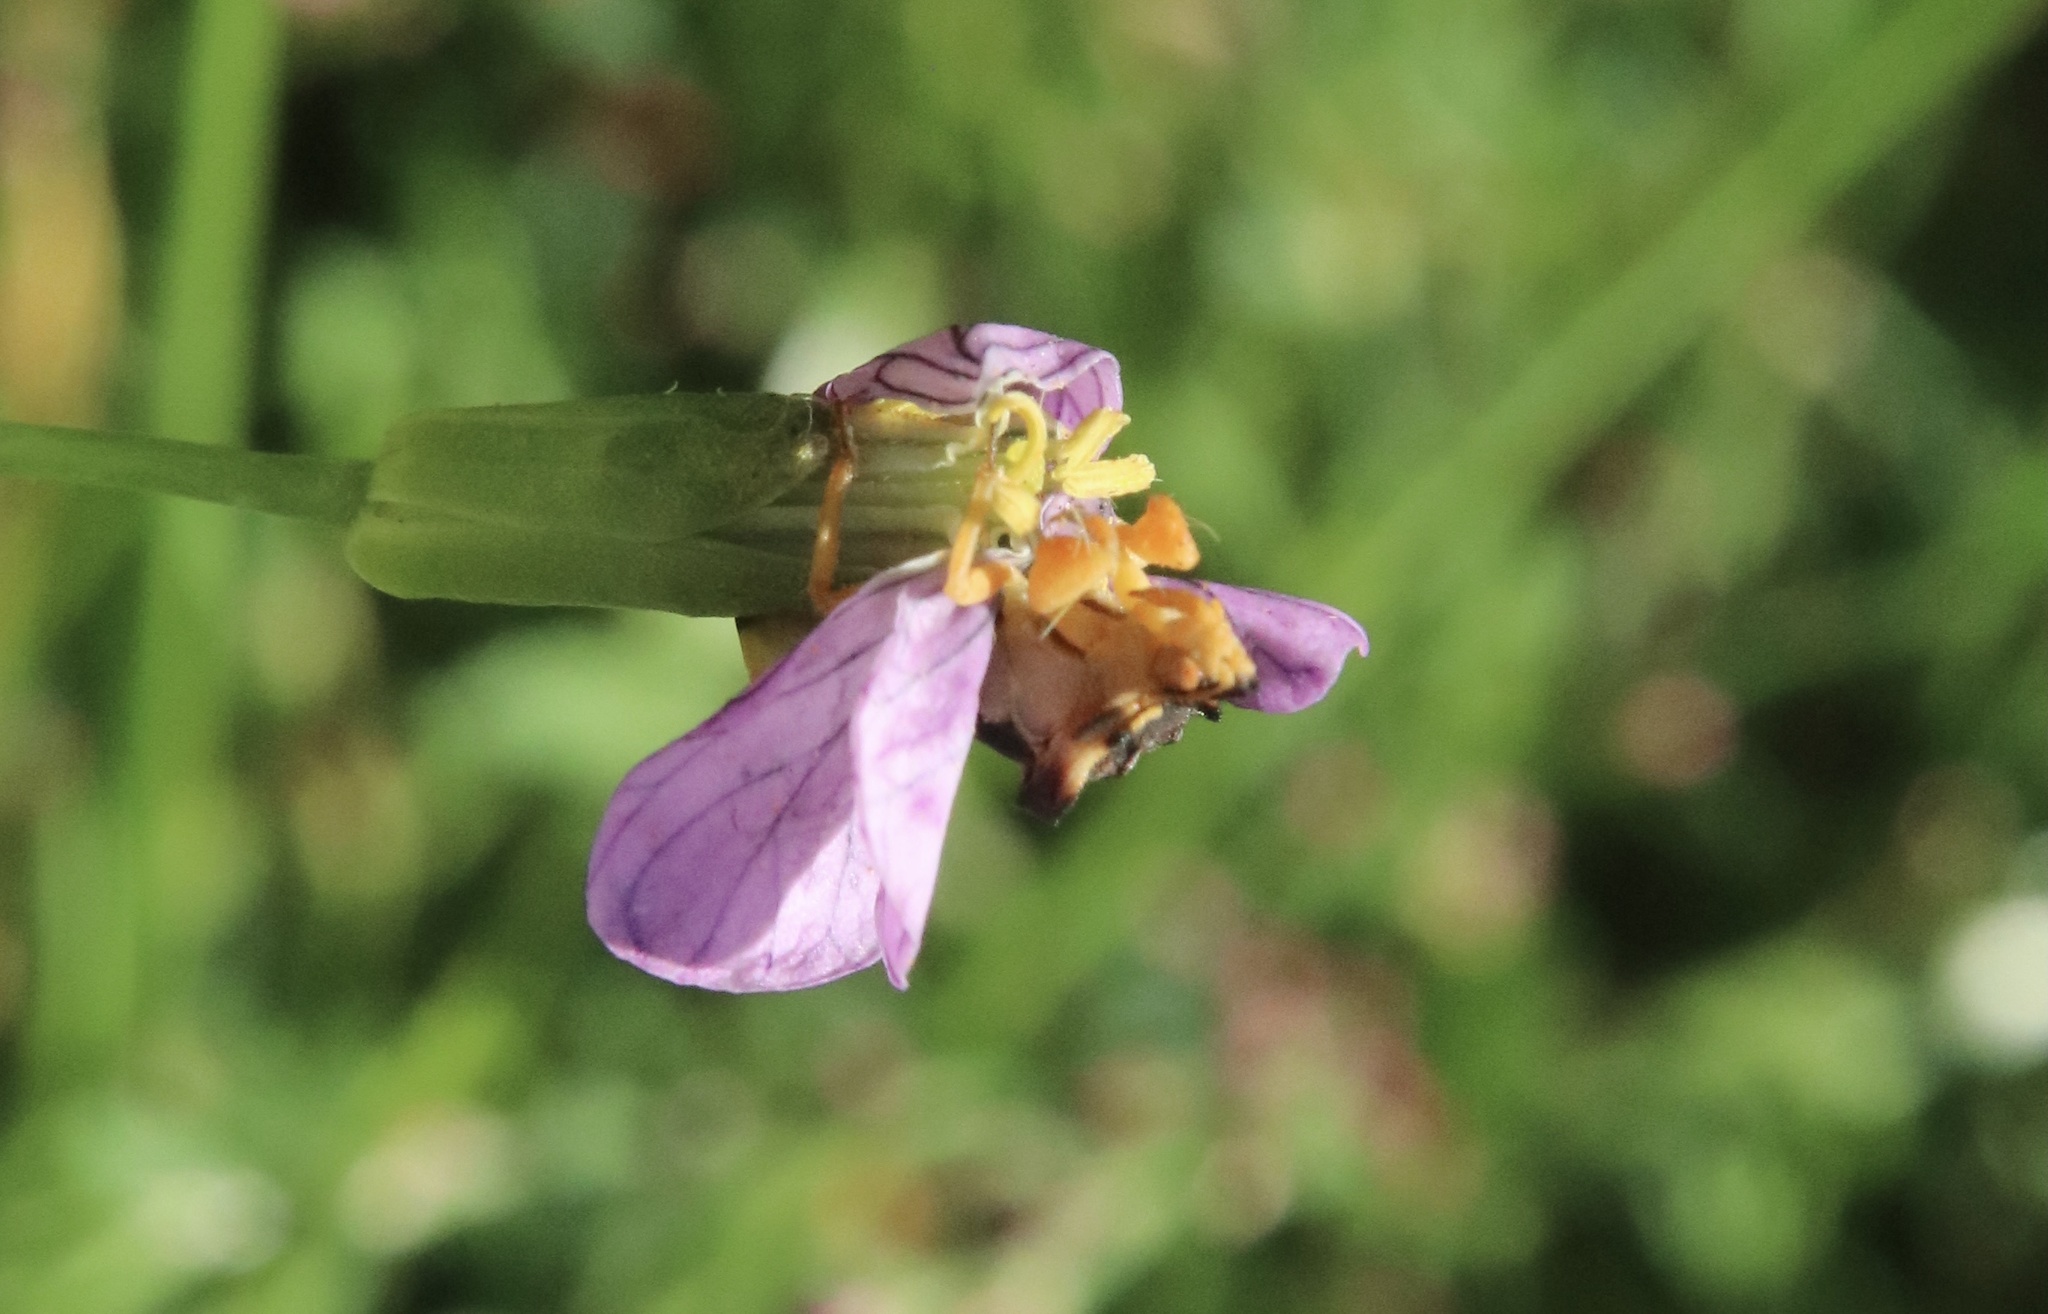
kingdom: Animalia
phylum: Arthropoda
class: Insecta
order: Hemiptera
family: Reduviidae
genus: Phymata
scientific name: Phymata chilensis
